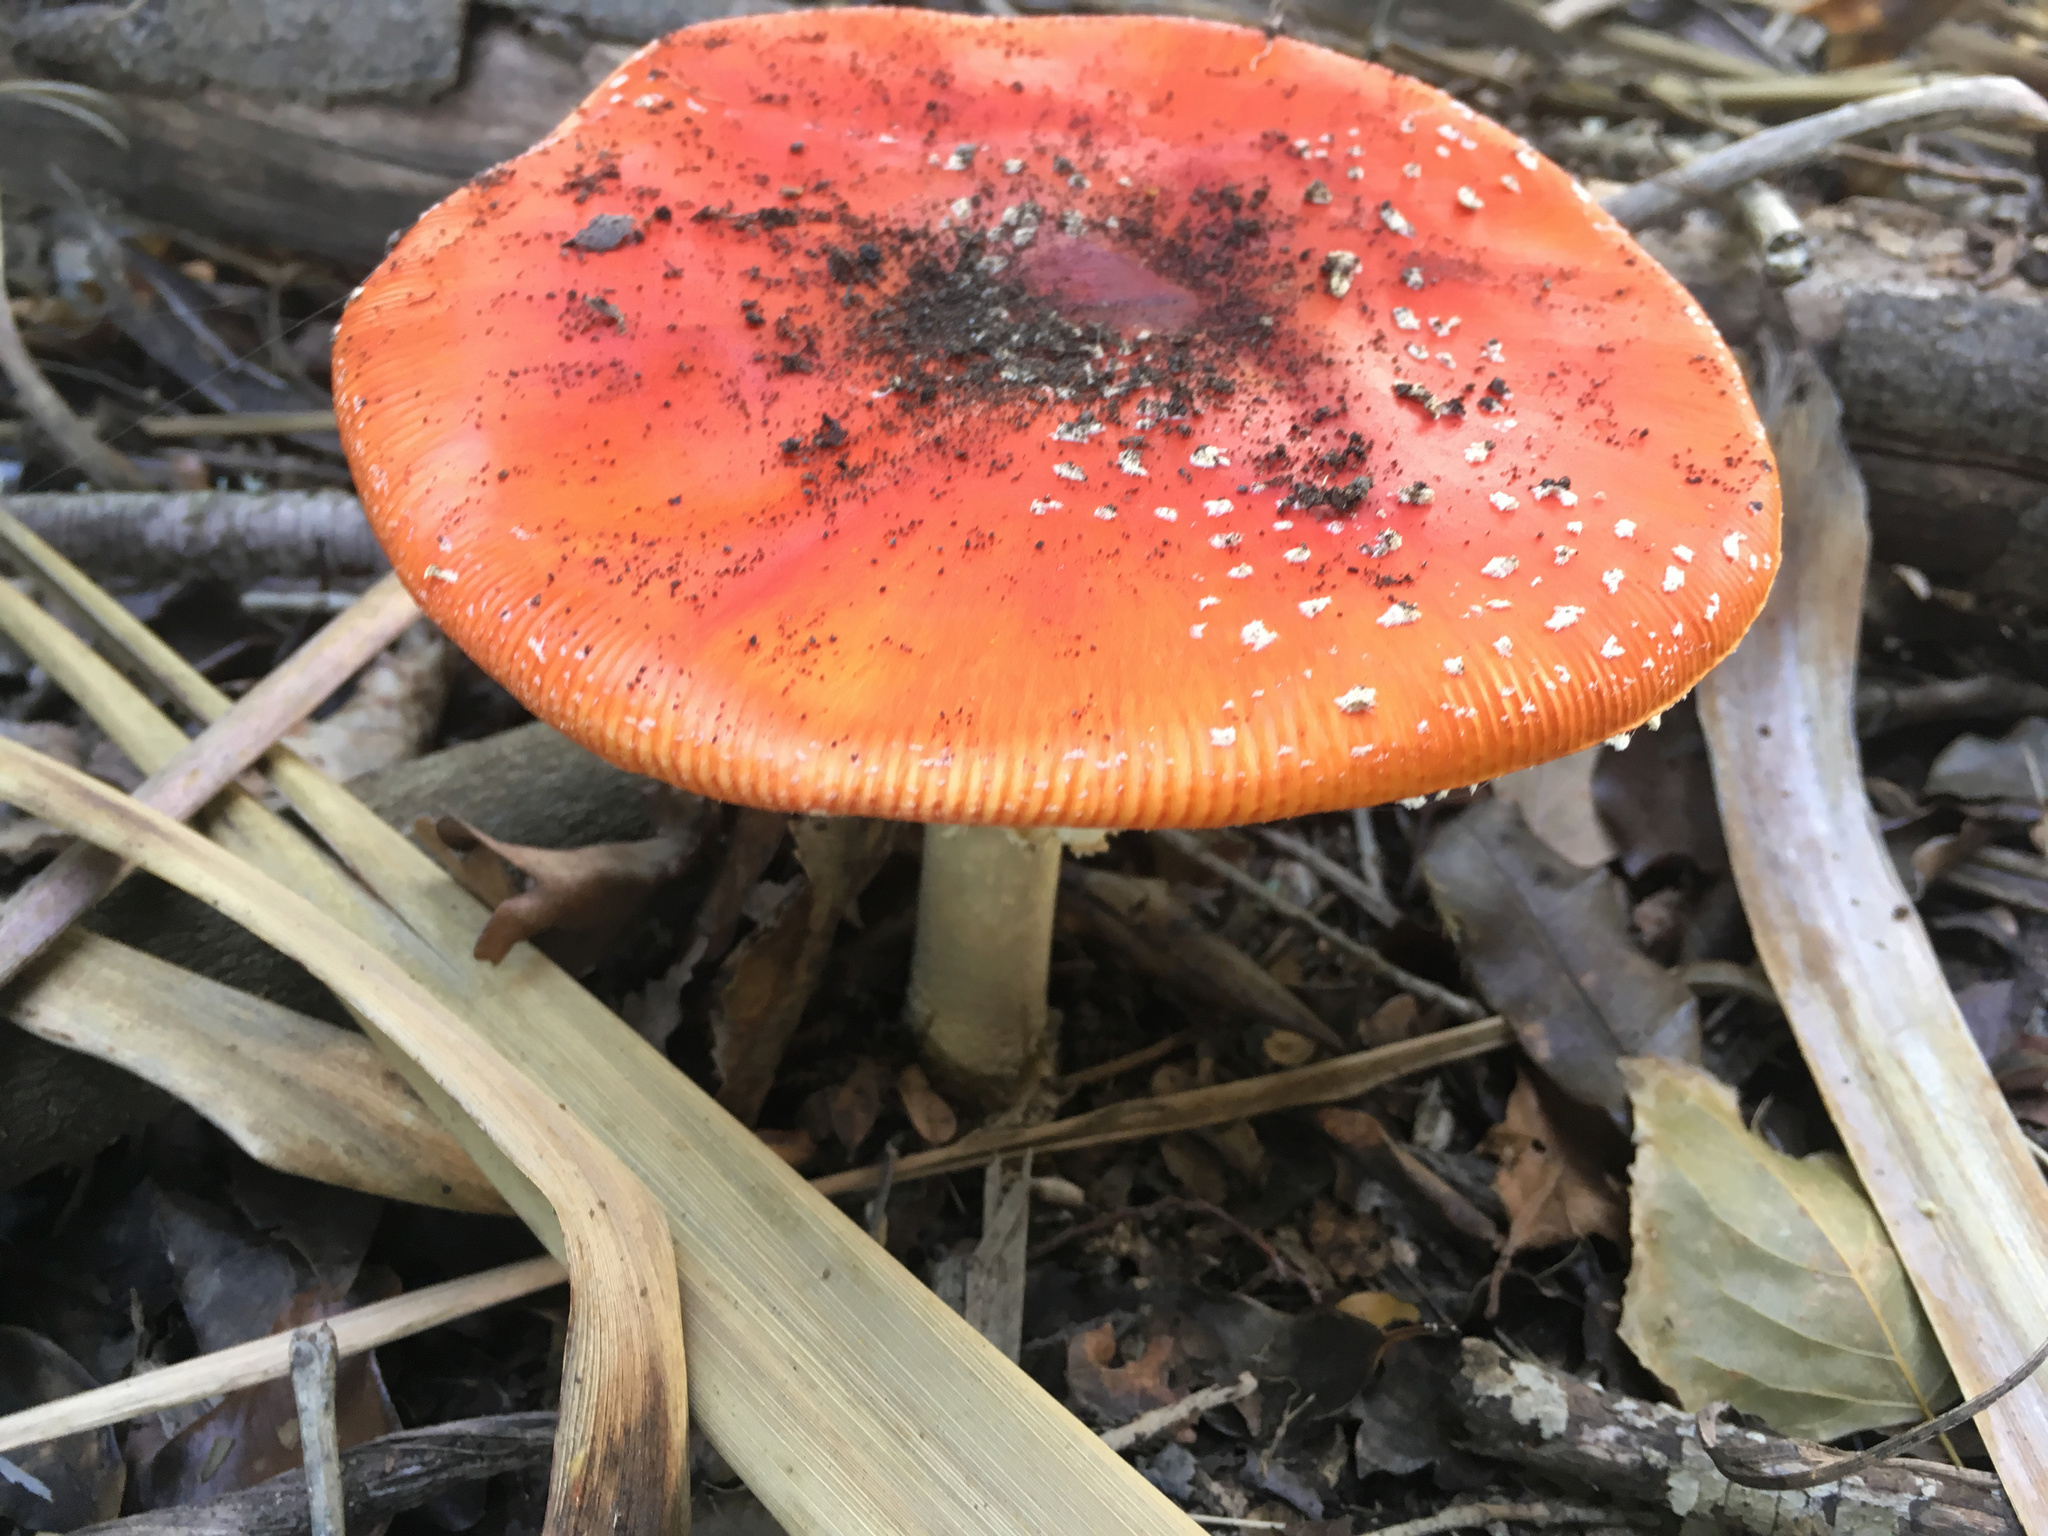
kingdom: Fungi
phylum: Basidiomycota
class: Agaricomycetes
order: Agaricales
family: Amanitaceae
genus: Amanita
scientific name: Amanita muscaria
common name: Fly agaric
